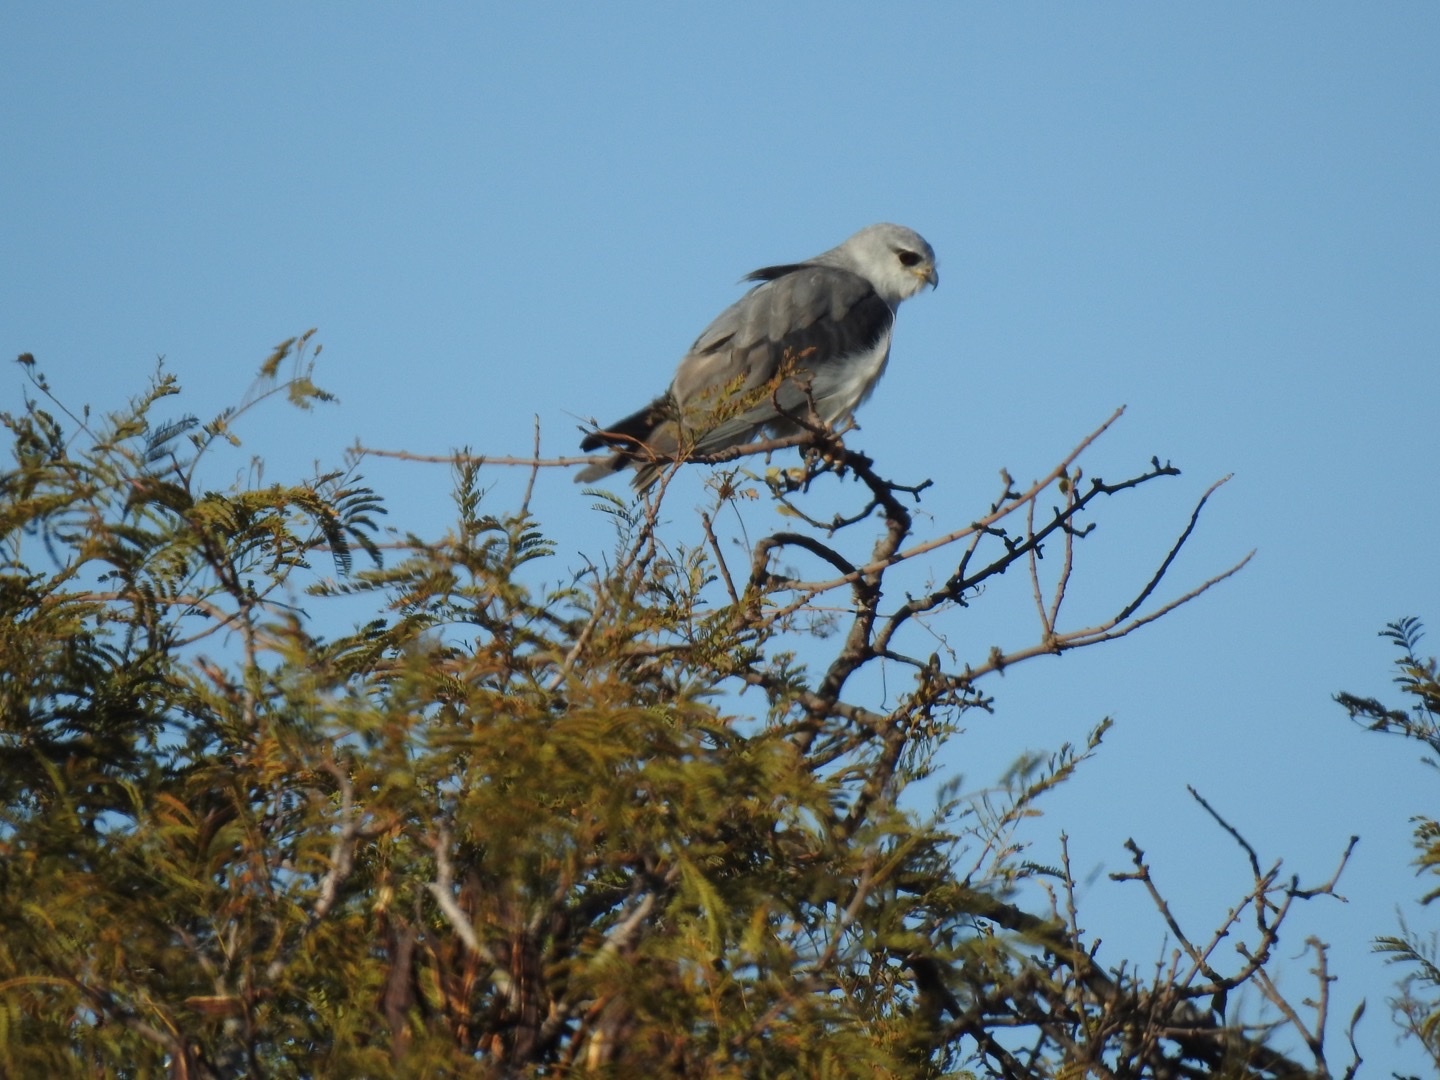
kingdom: Animalia
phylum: Chordata
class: Aves
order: Accipitriformes
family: Accipitridae
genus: Elanus
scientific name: Elanus caeruleus
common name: Black-winged kite
